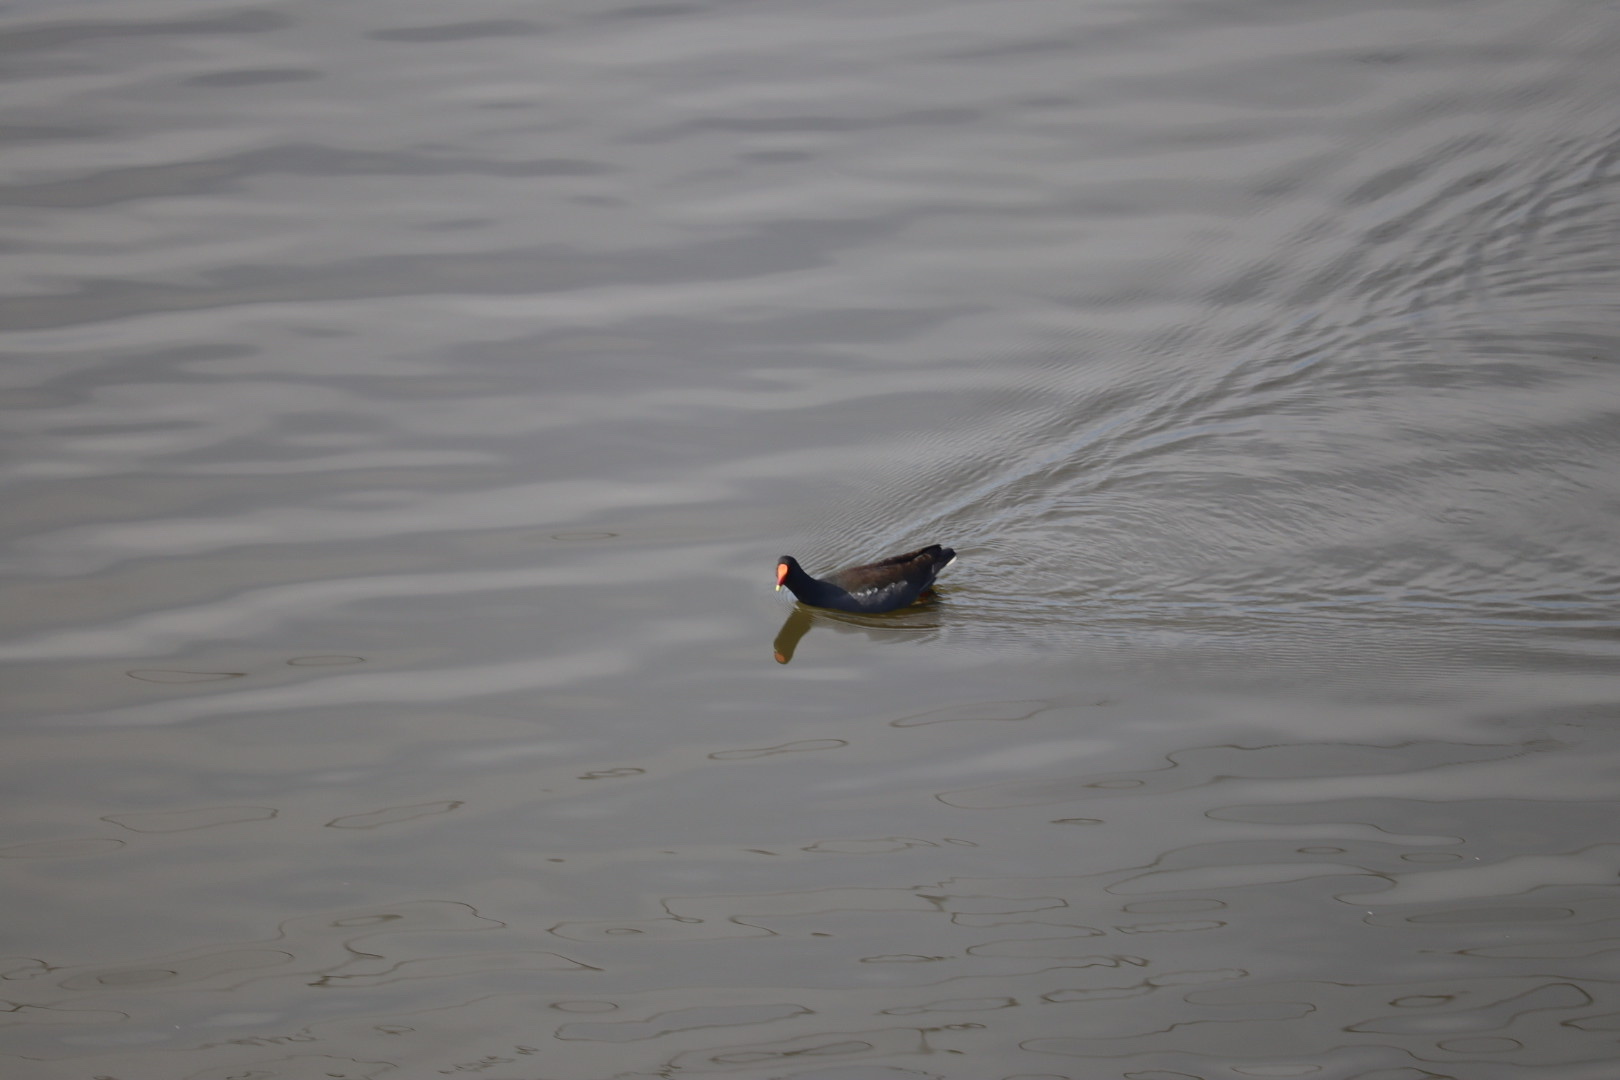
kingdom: Animalia
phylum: Chordata
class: Aves
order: Gruiformes
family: Rallidae
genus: Gallinula
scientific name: Gallinula tenebrosa
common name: Dusky moorhen
